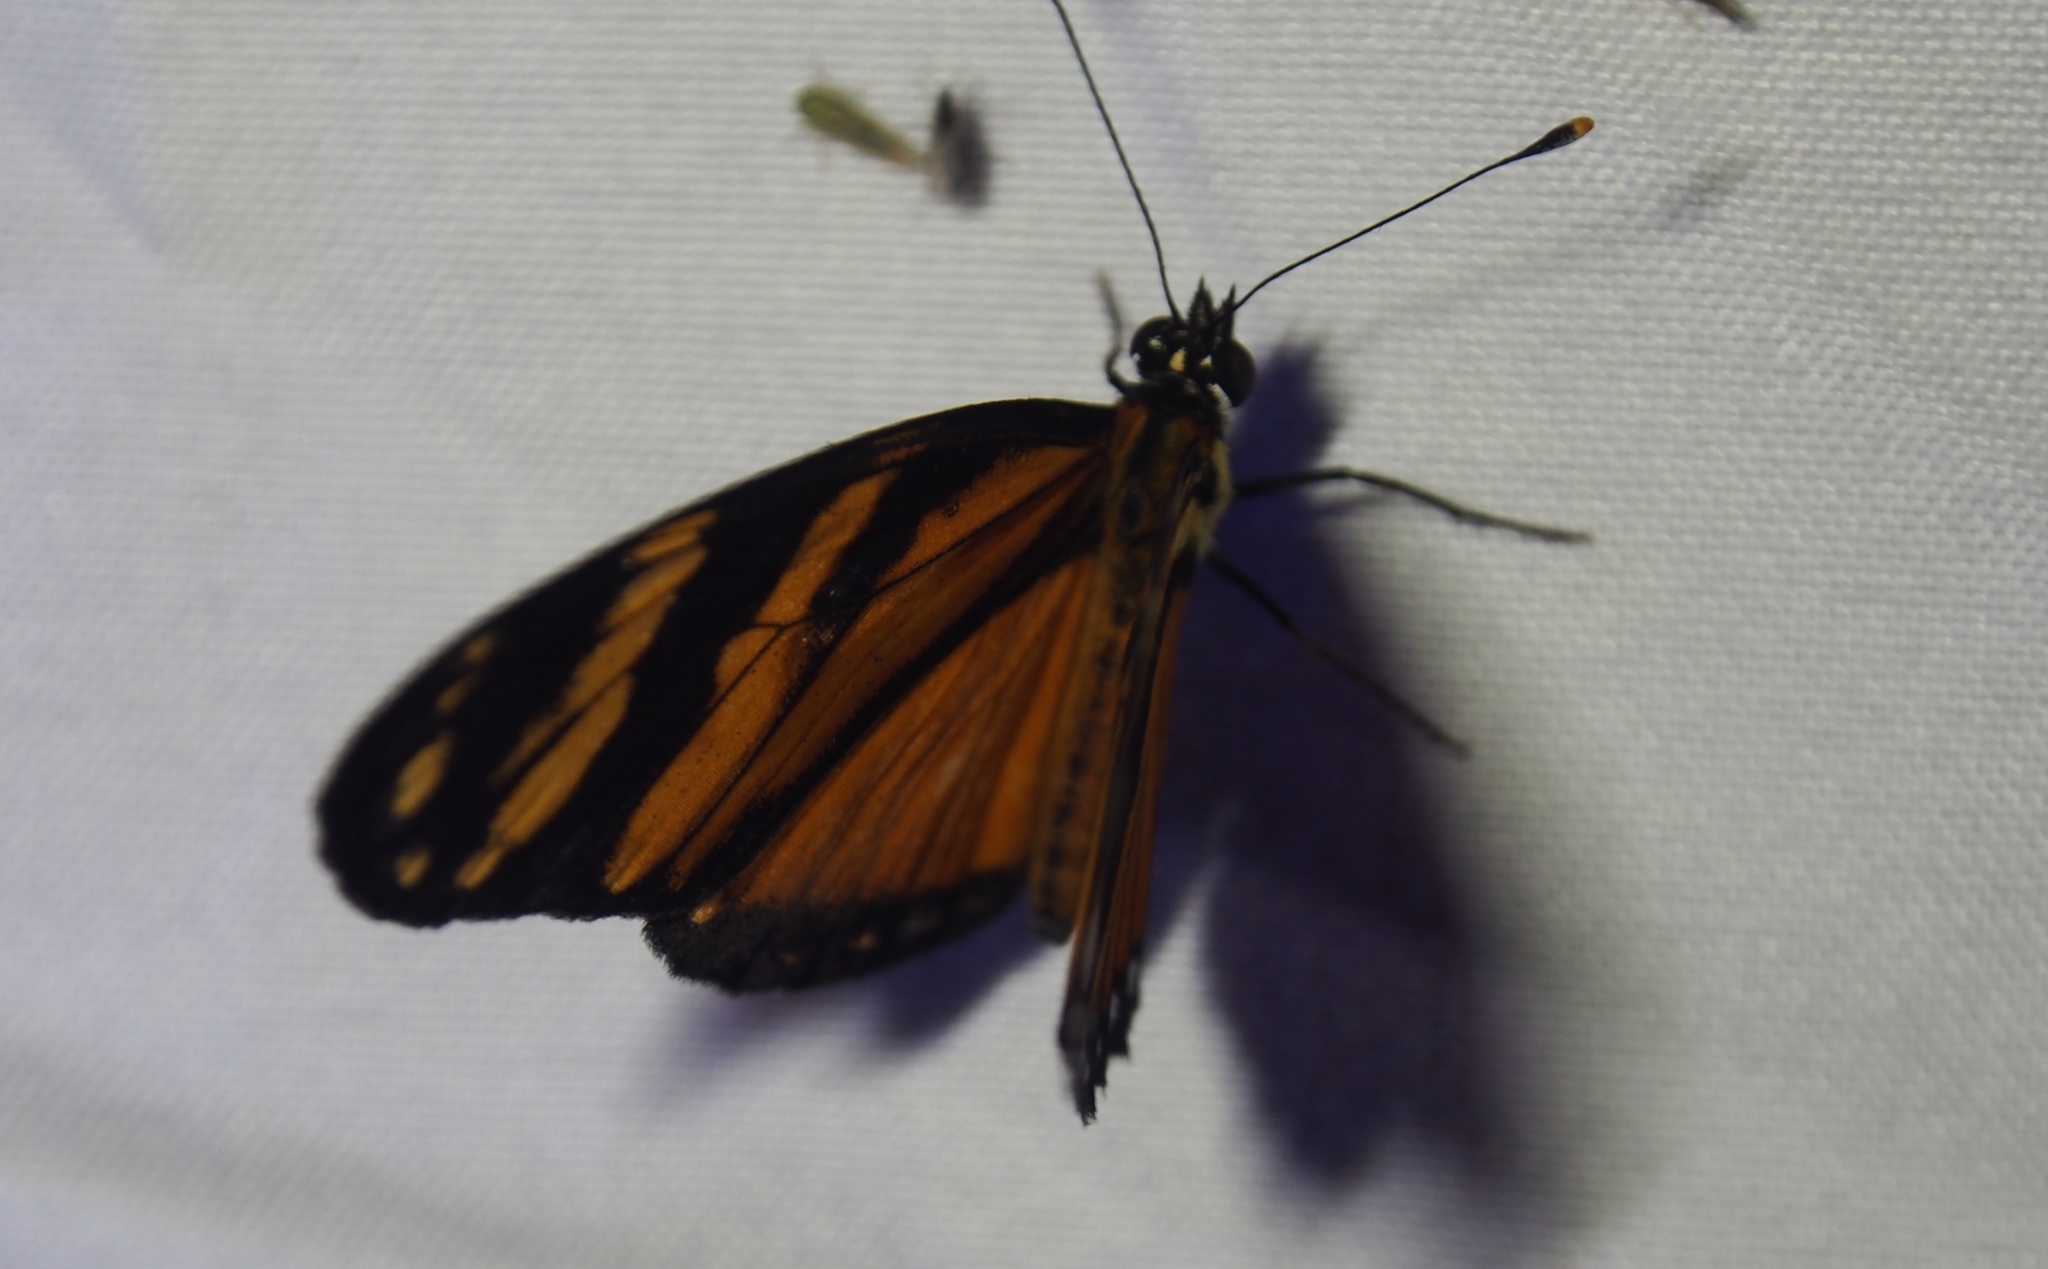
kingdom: Animalia
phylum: Arthropoda
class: Insecta
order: Lepidoptera
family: Nymphalidae
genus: Eresia
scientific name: Eresia ithomioides
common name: Variable crescent
